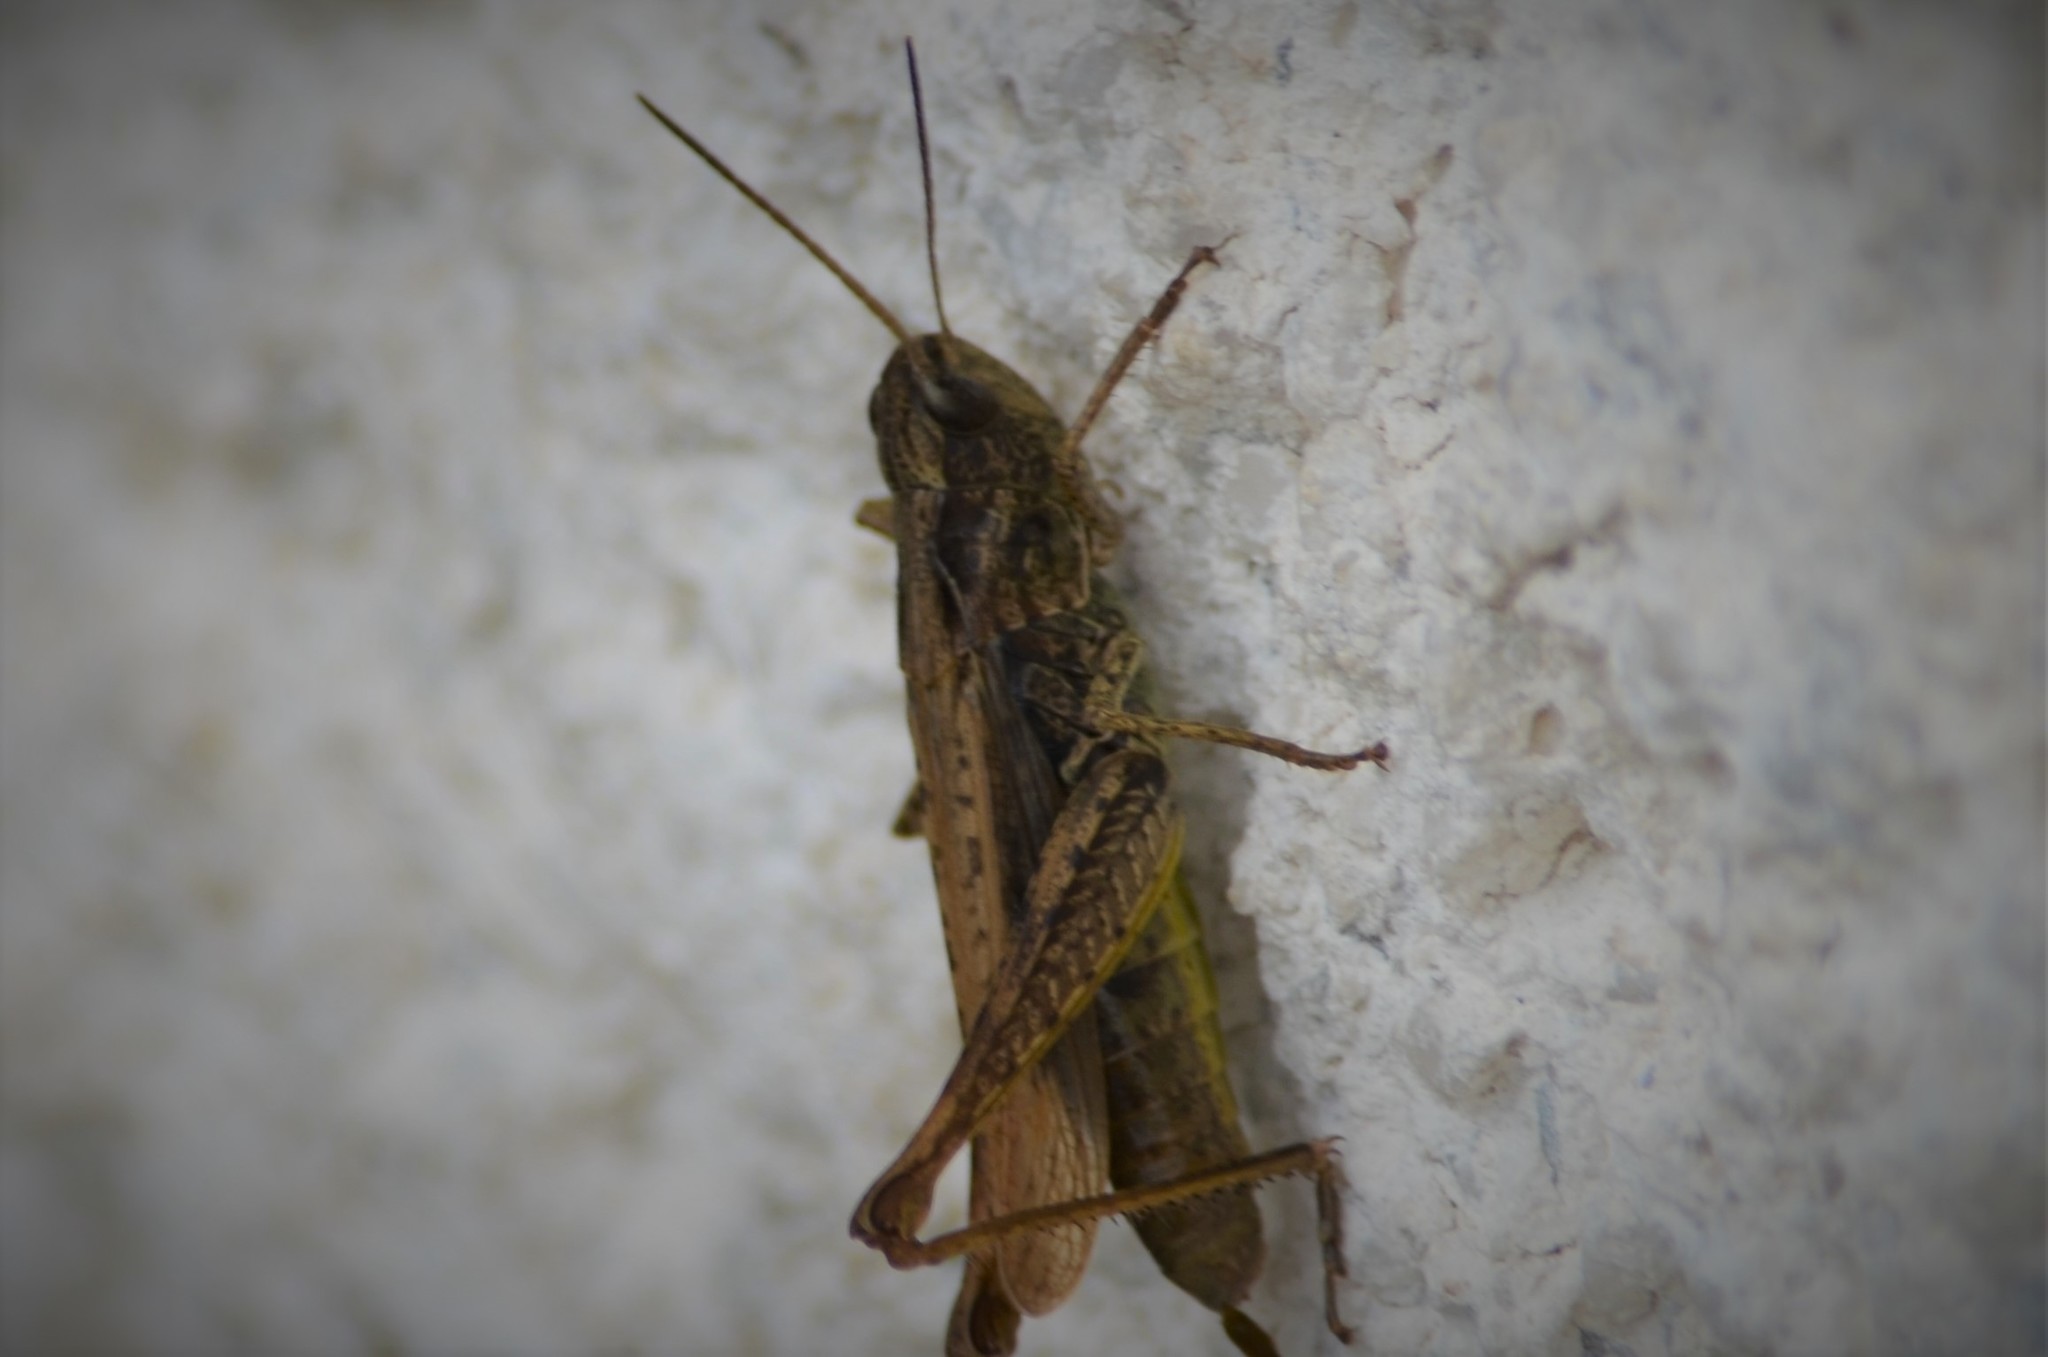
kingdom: Animalia
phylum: Arthropoda
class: Insecta
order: Orthoptera
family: Acrididae
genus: Chorthippus
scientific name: Chorthippus apricarius
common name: Upland field grasshopper
